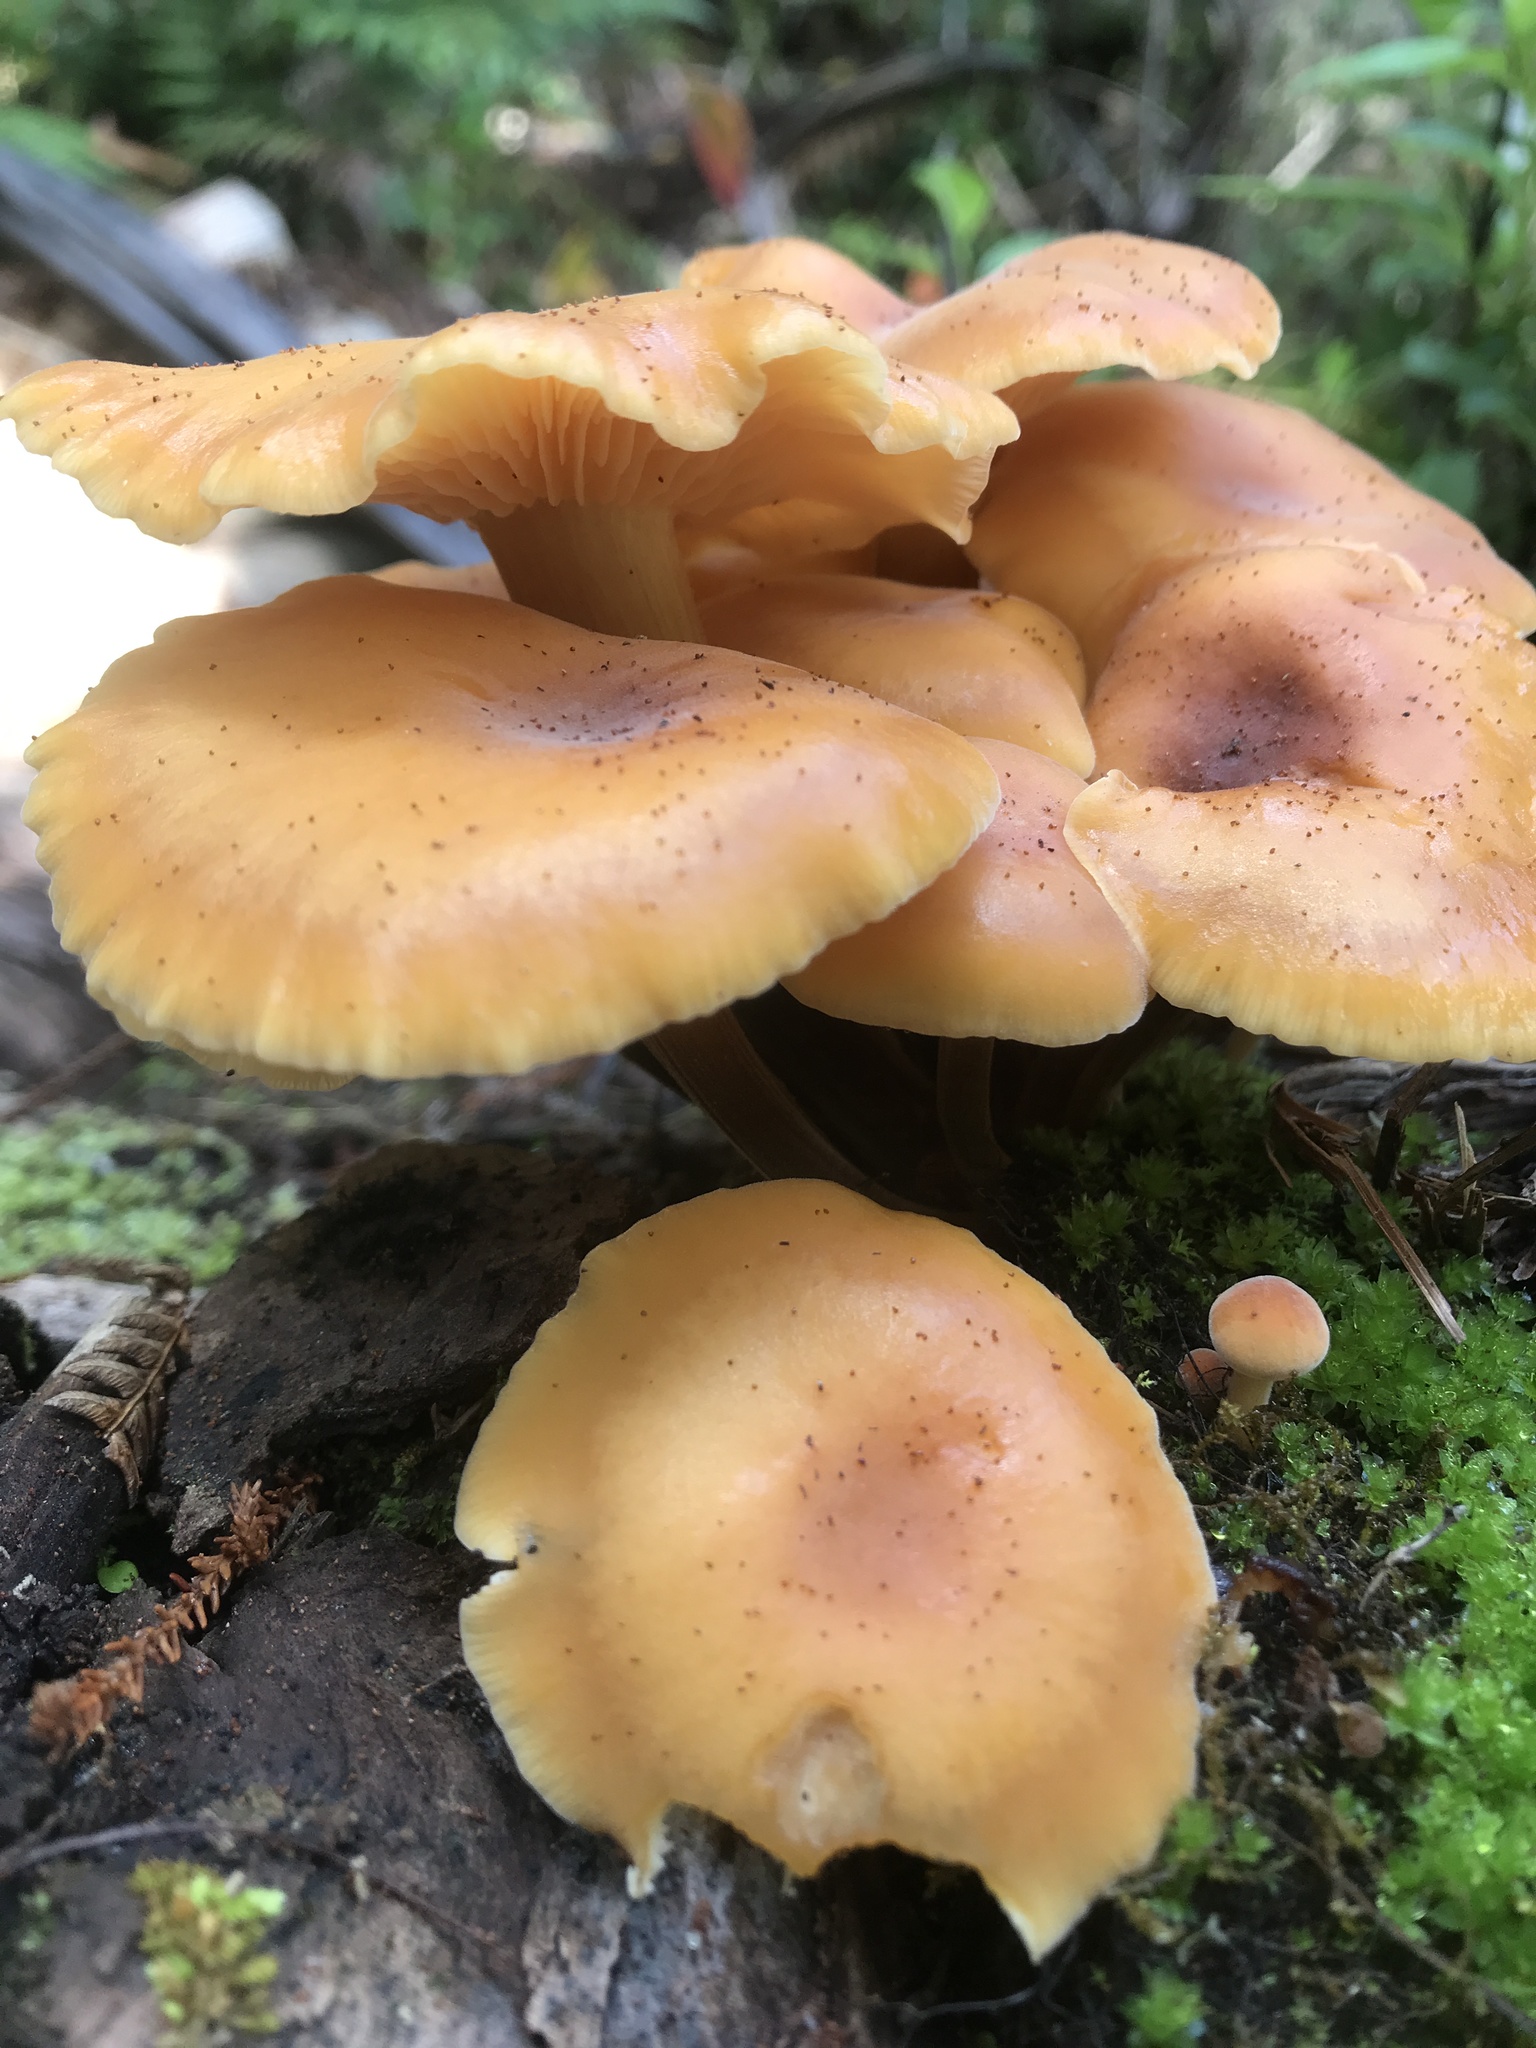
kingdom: Fungi
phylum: Basidiomycota
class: Agaricomycetes
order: Agaricales
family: Physalacriaceae
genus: Flammulina
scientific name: Flammulina velutipes
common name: Velvet shank
